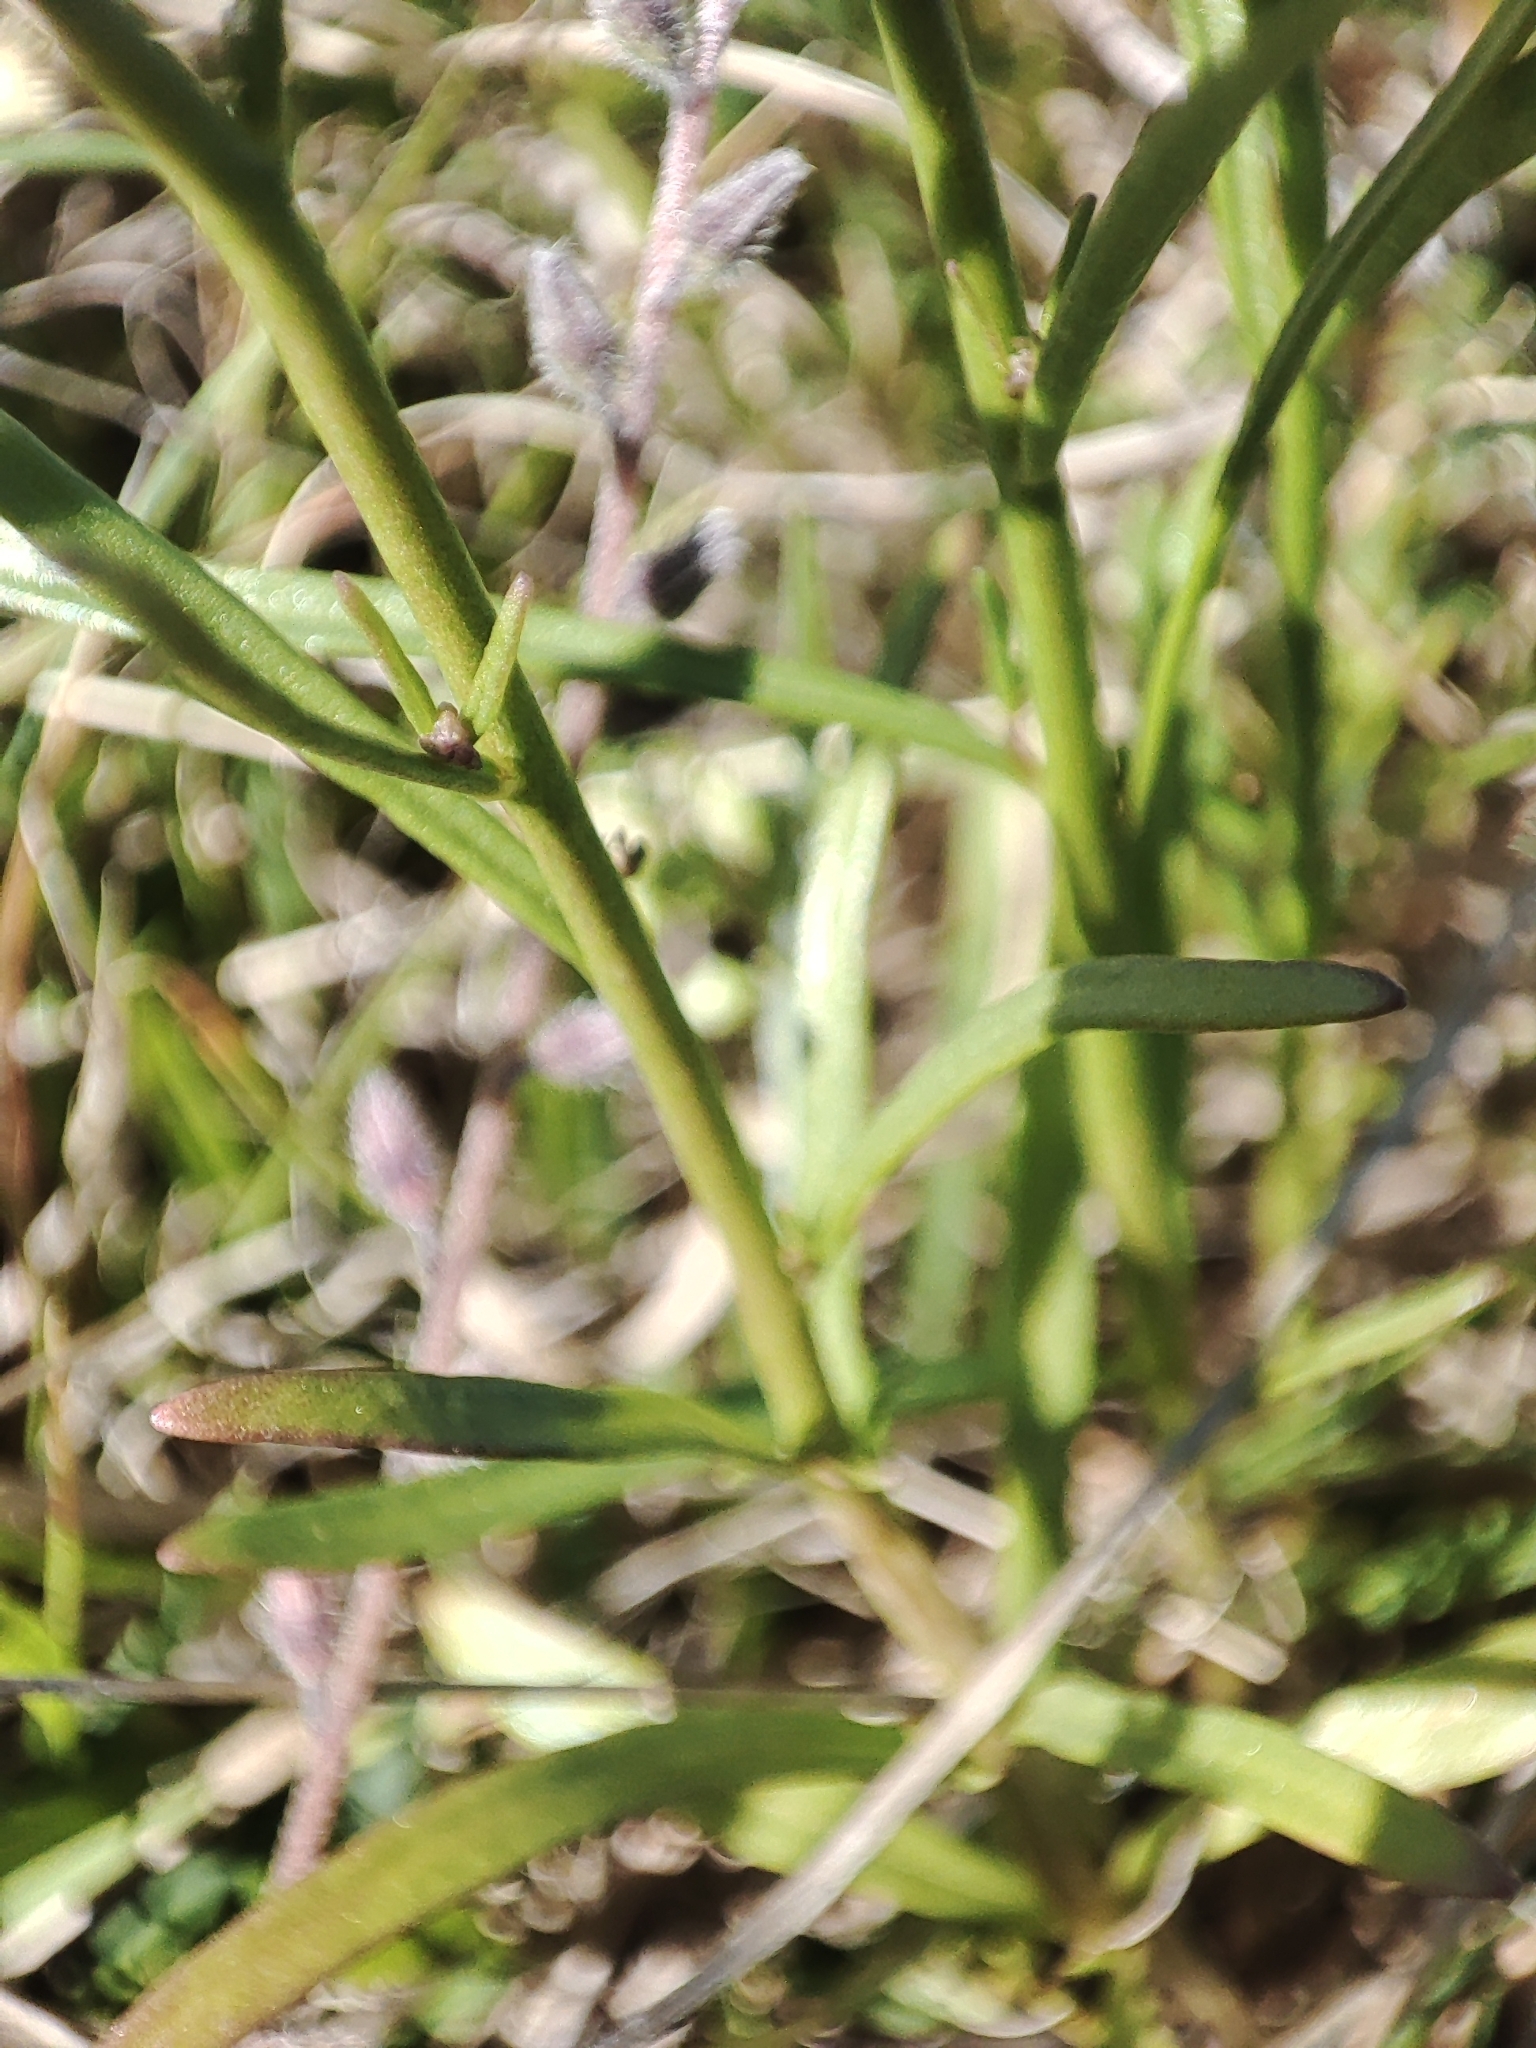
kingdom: Plantae
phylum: Tracheophyta
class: Magnoliopsida
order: Lamiales
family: Plantaginaceae
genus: Linaria
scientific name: Linaria pelisseriana
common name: Jersey toadflax
